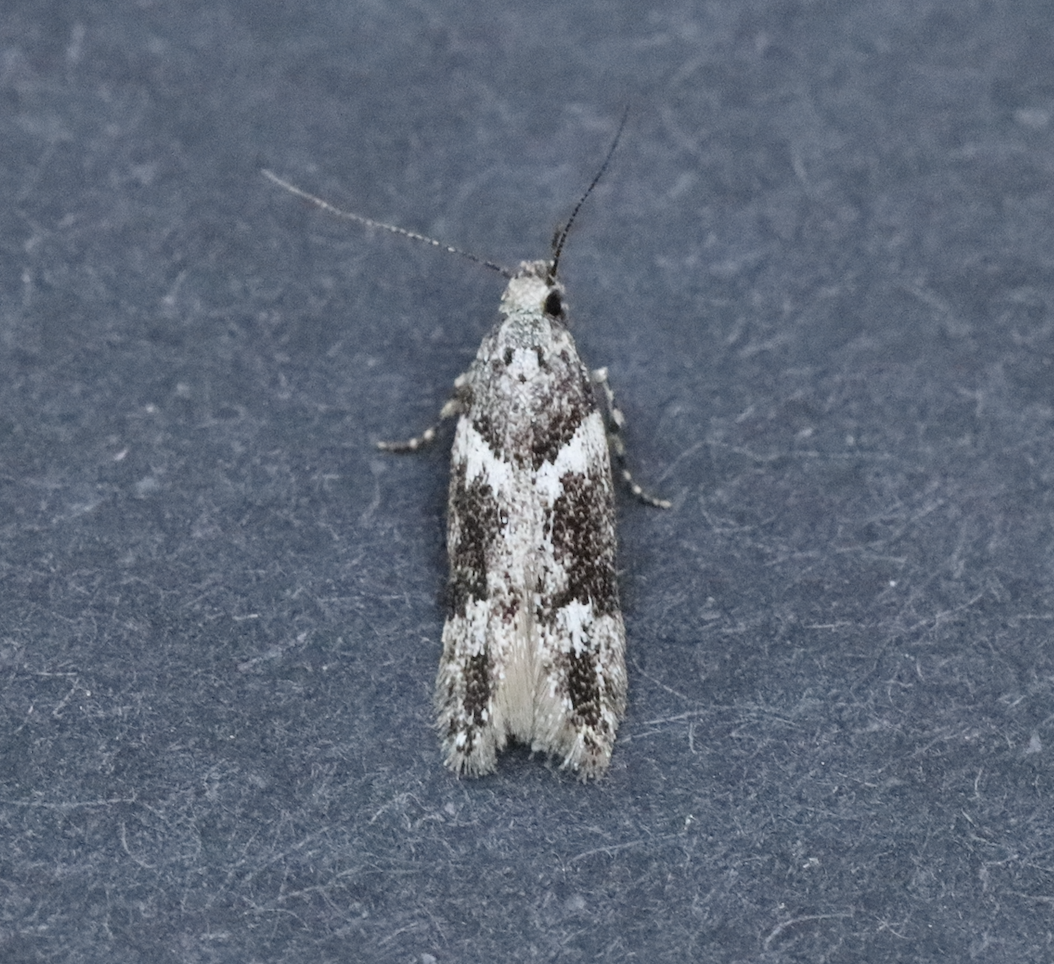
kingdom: Animalia
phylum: Arthropoda
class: Insecta
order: Lepidoptera
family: Gelechiidae
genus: Neotelphusa
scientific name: Neotelphusa praefixa
